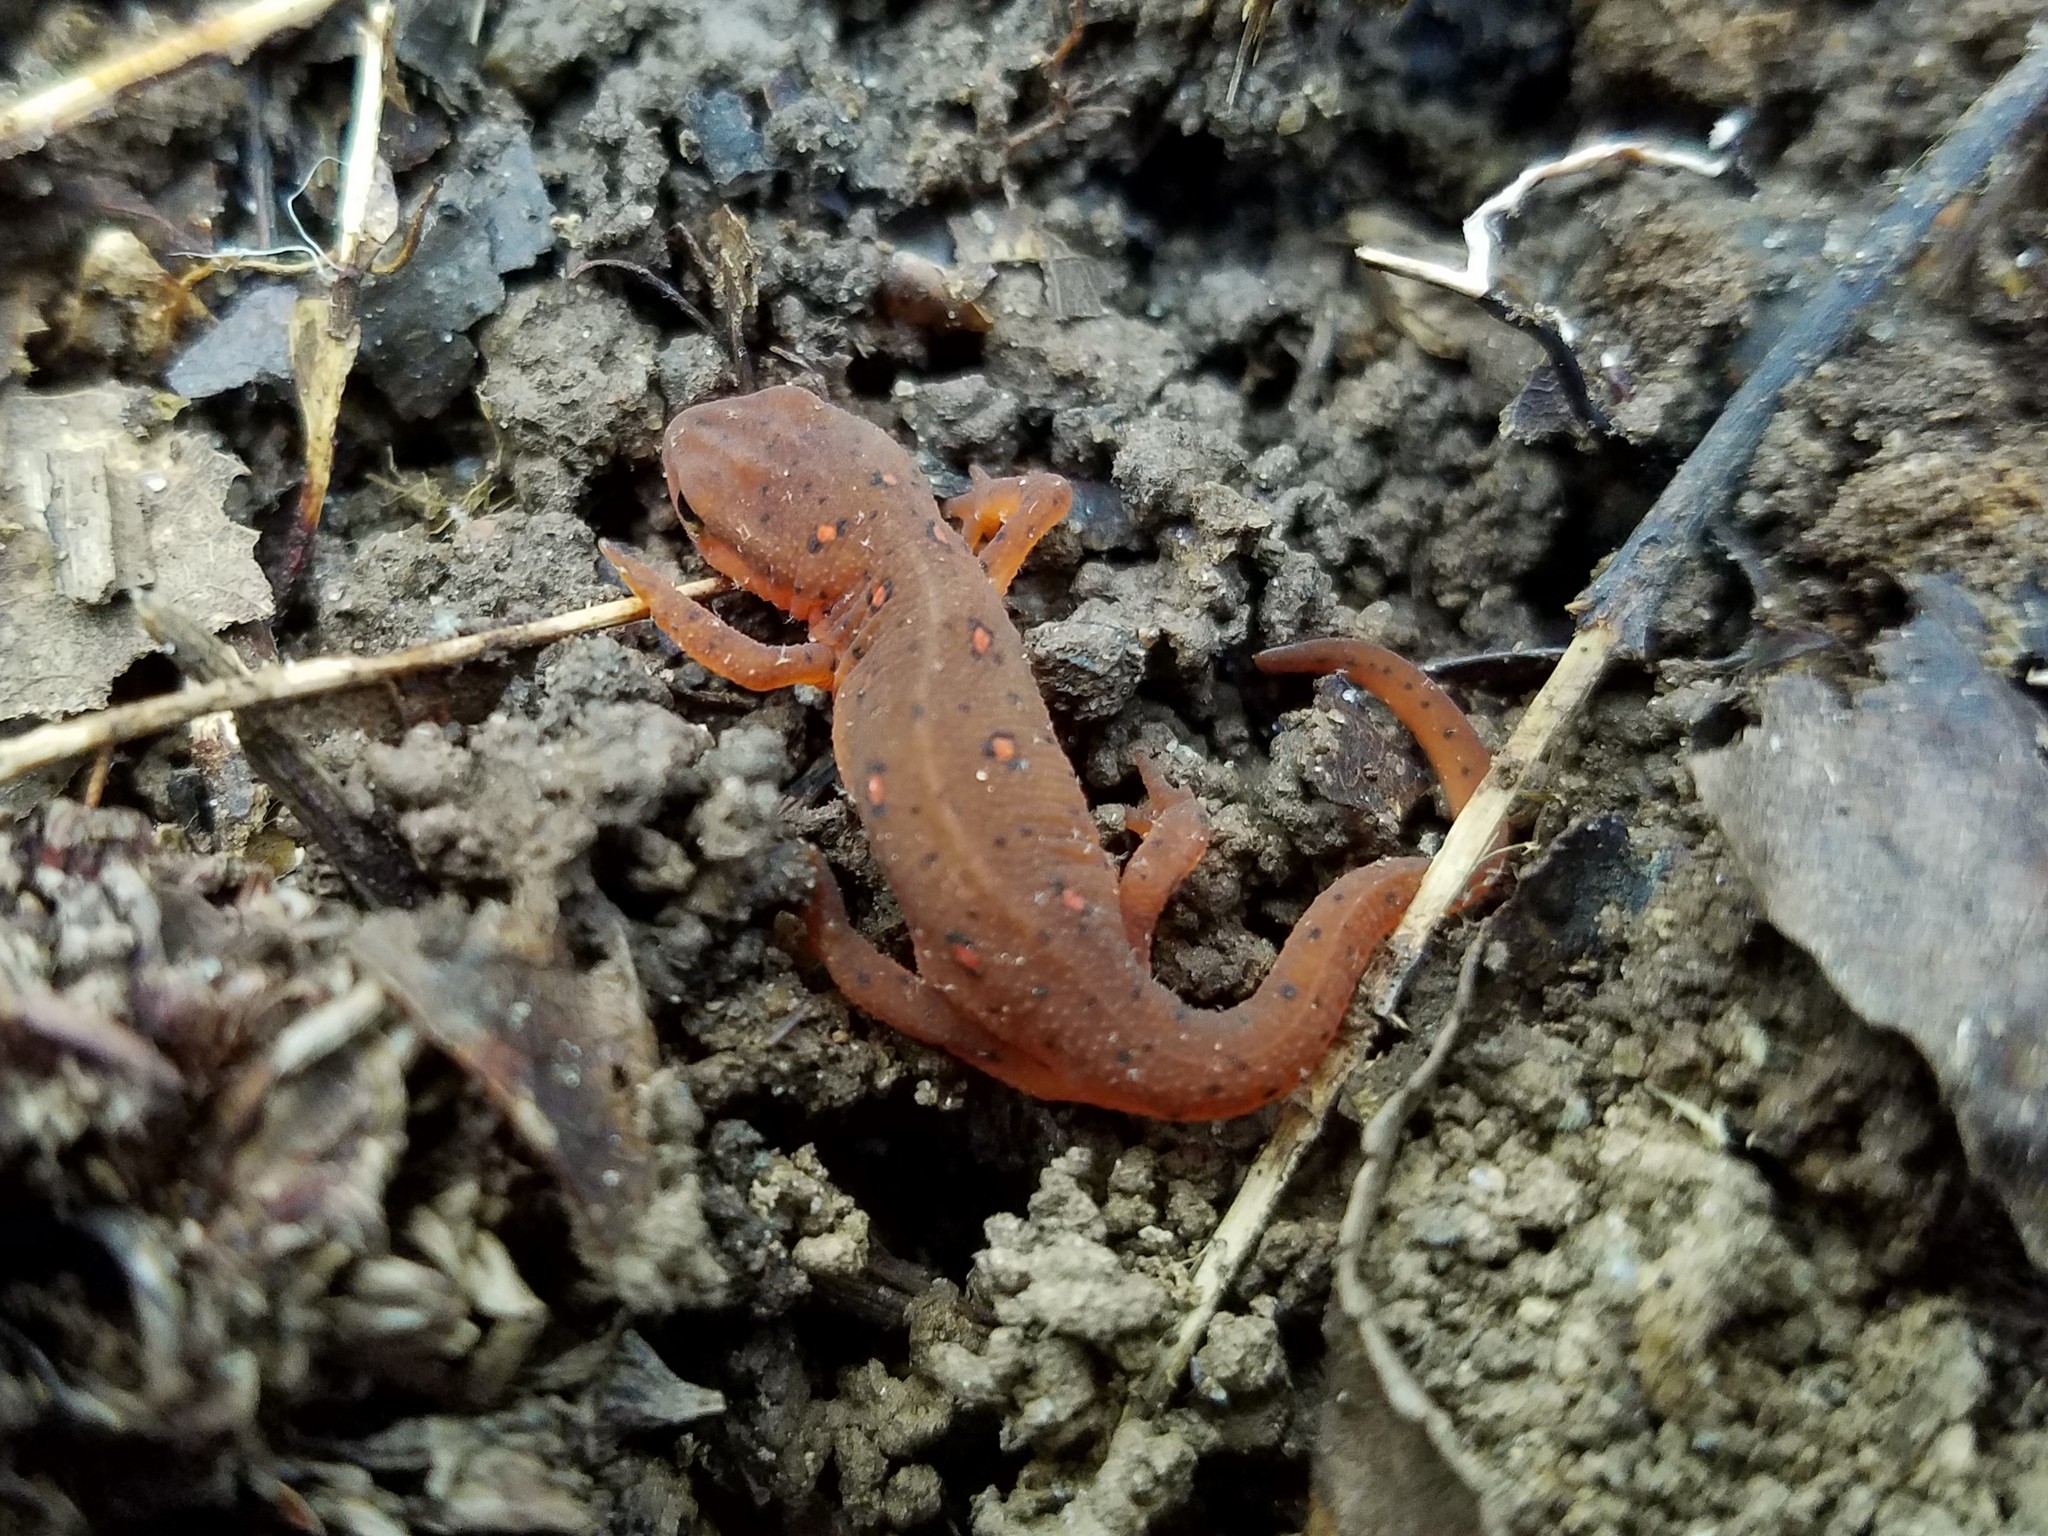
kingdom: Animalia
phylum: Chordata
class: Amphibia
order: Caudata
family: Salamandridae
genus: Notophthalmus
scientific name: Notophthalmus viridescens
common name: Eastern newt
